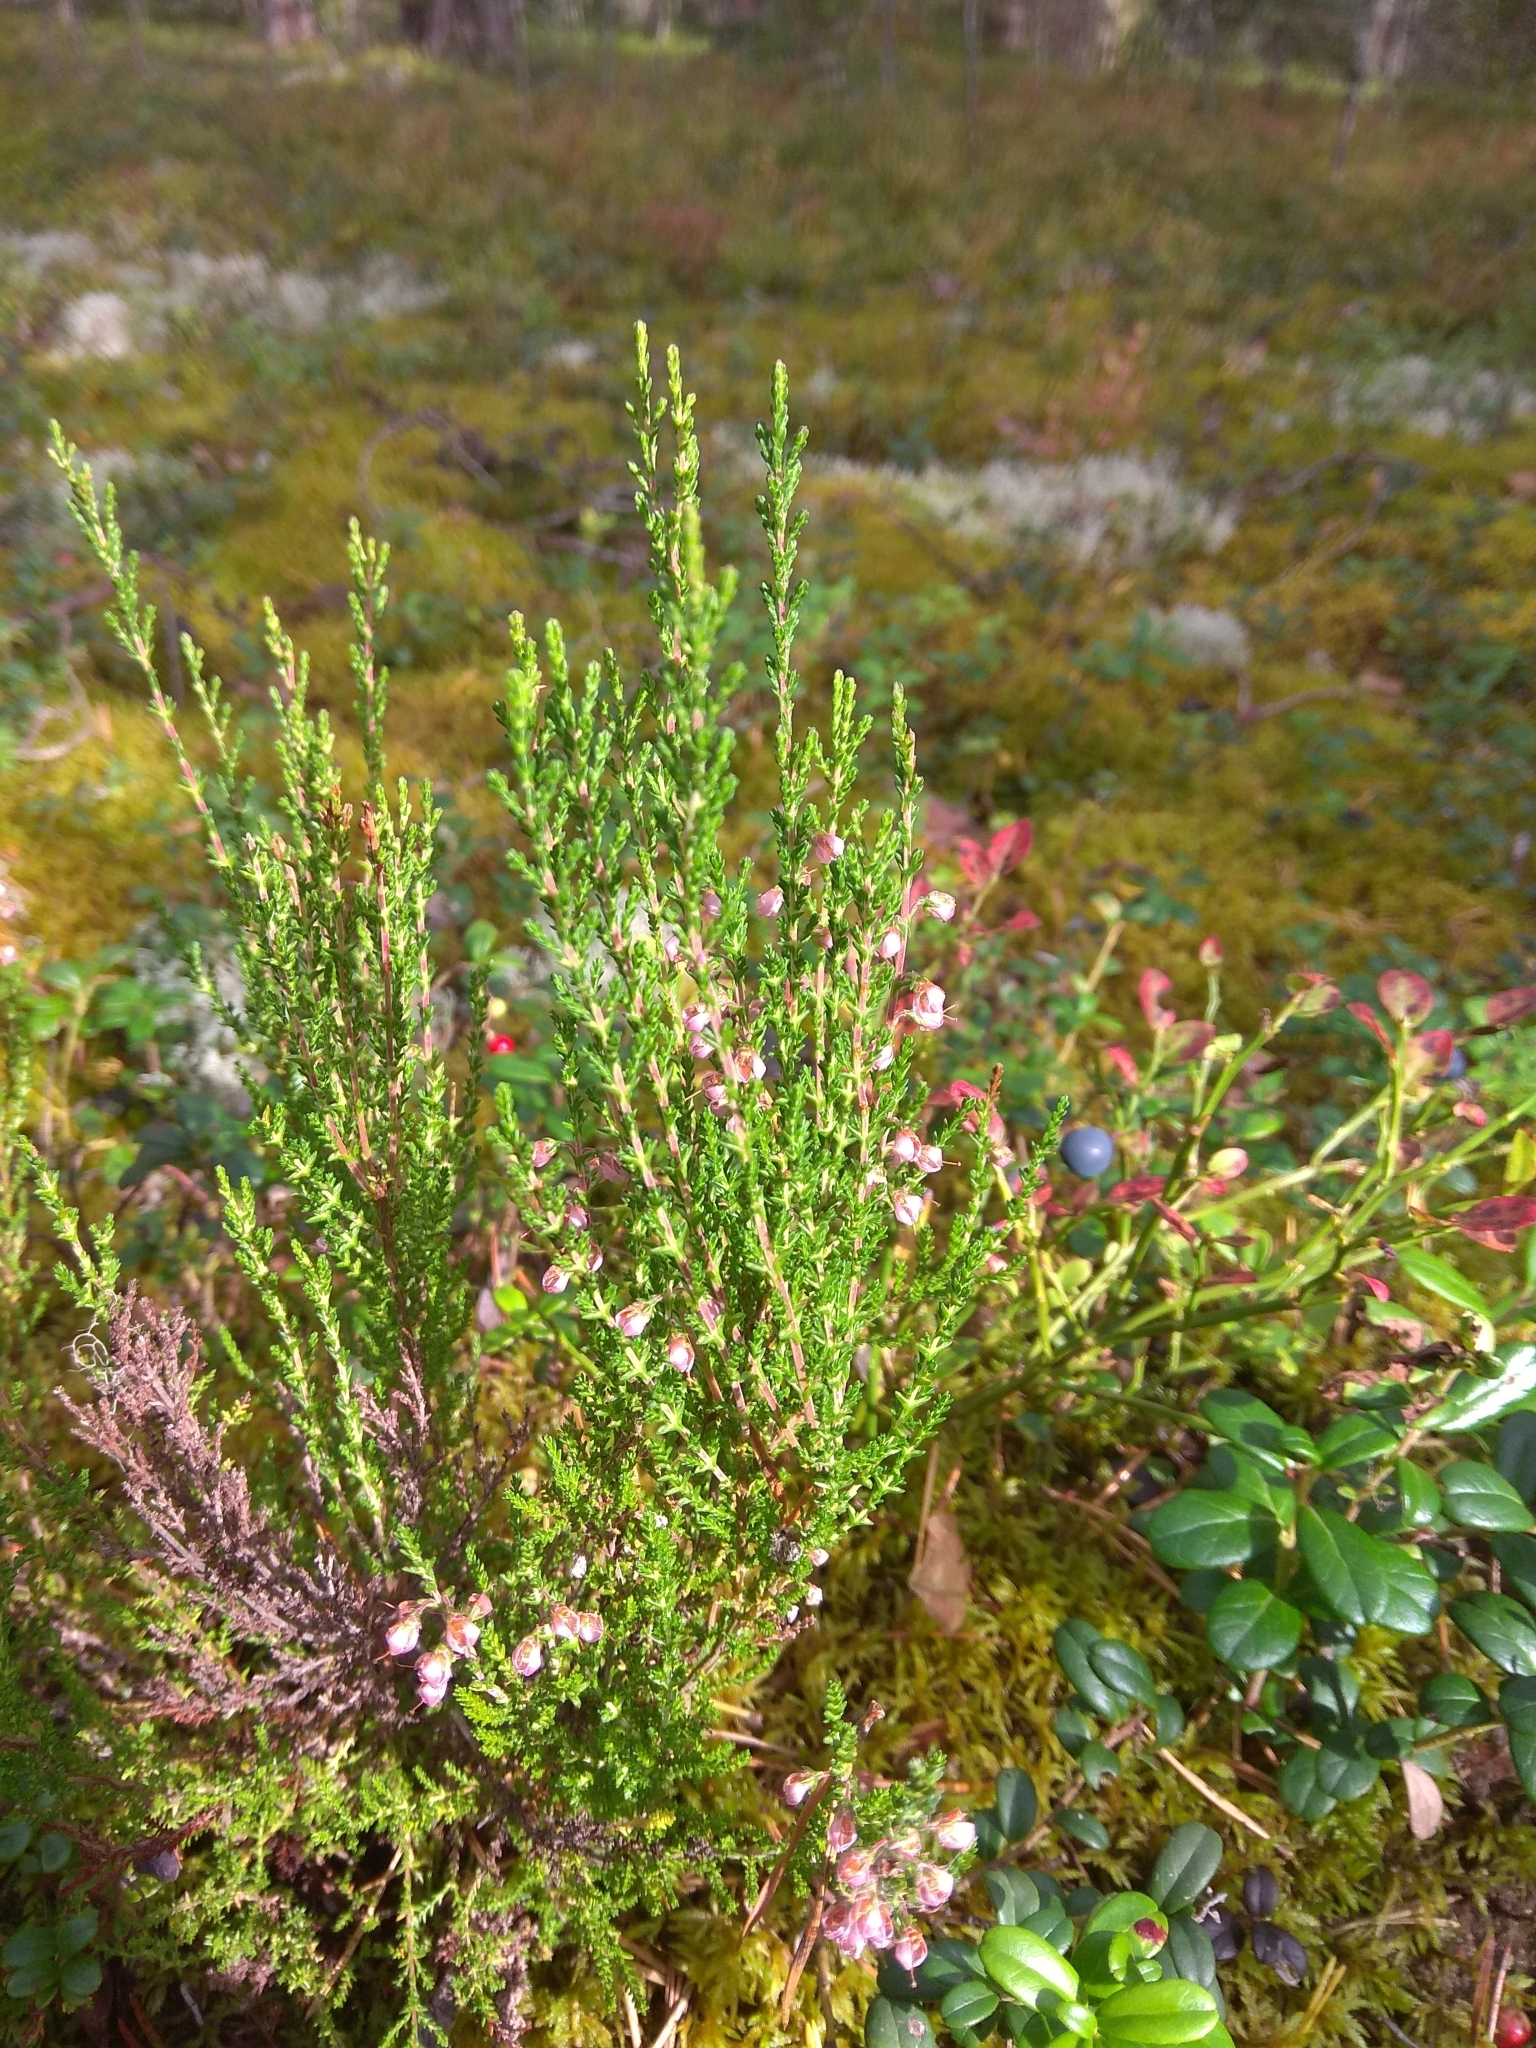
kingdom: Plantae
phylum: Tracheophyta
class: Magnoliopsida
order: Ericales
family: Ericaceae
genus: Calluna
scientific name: Calluna vulgaris
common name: Heather
